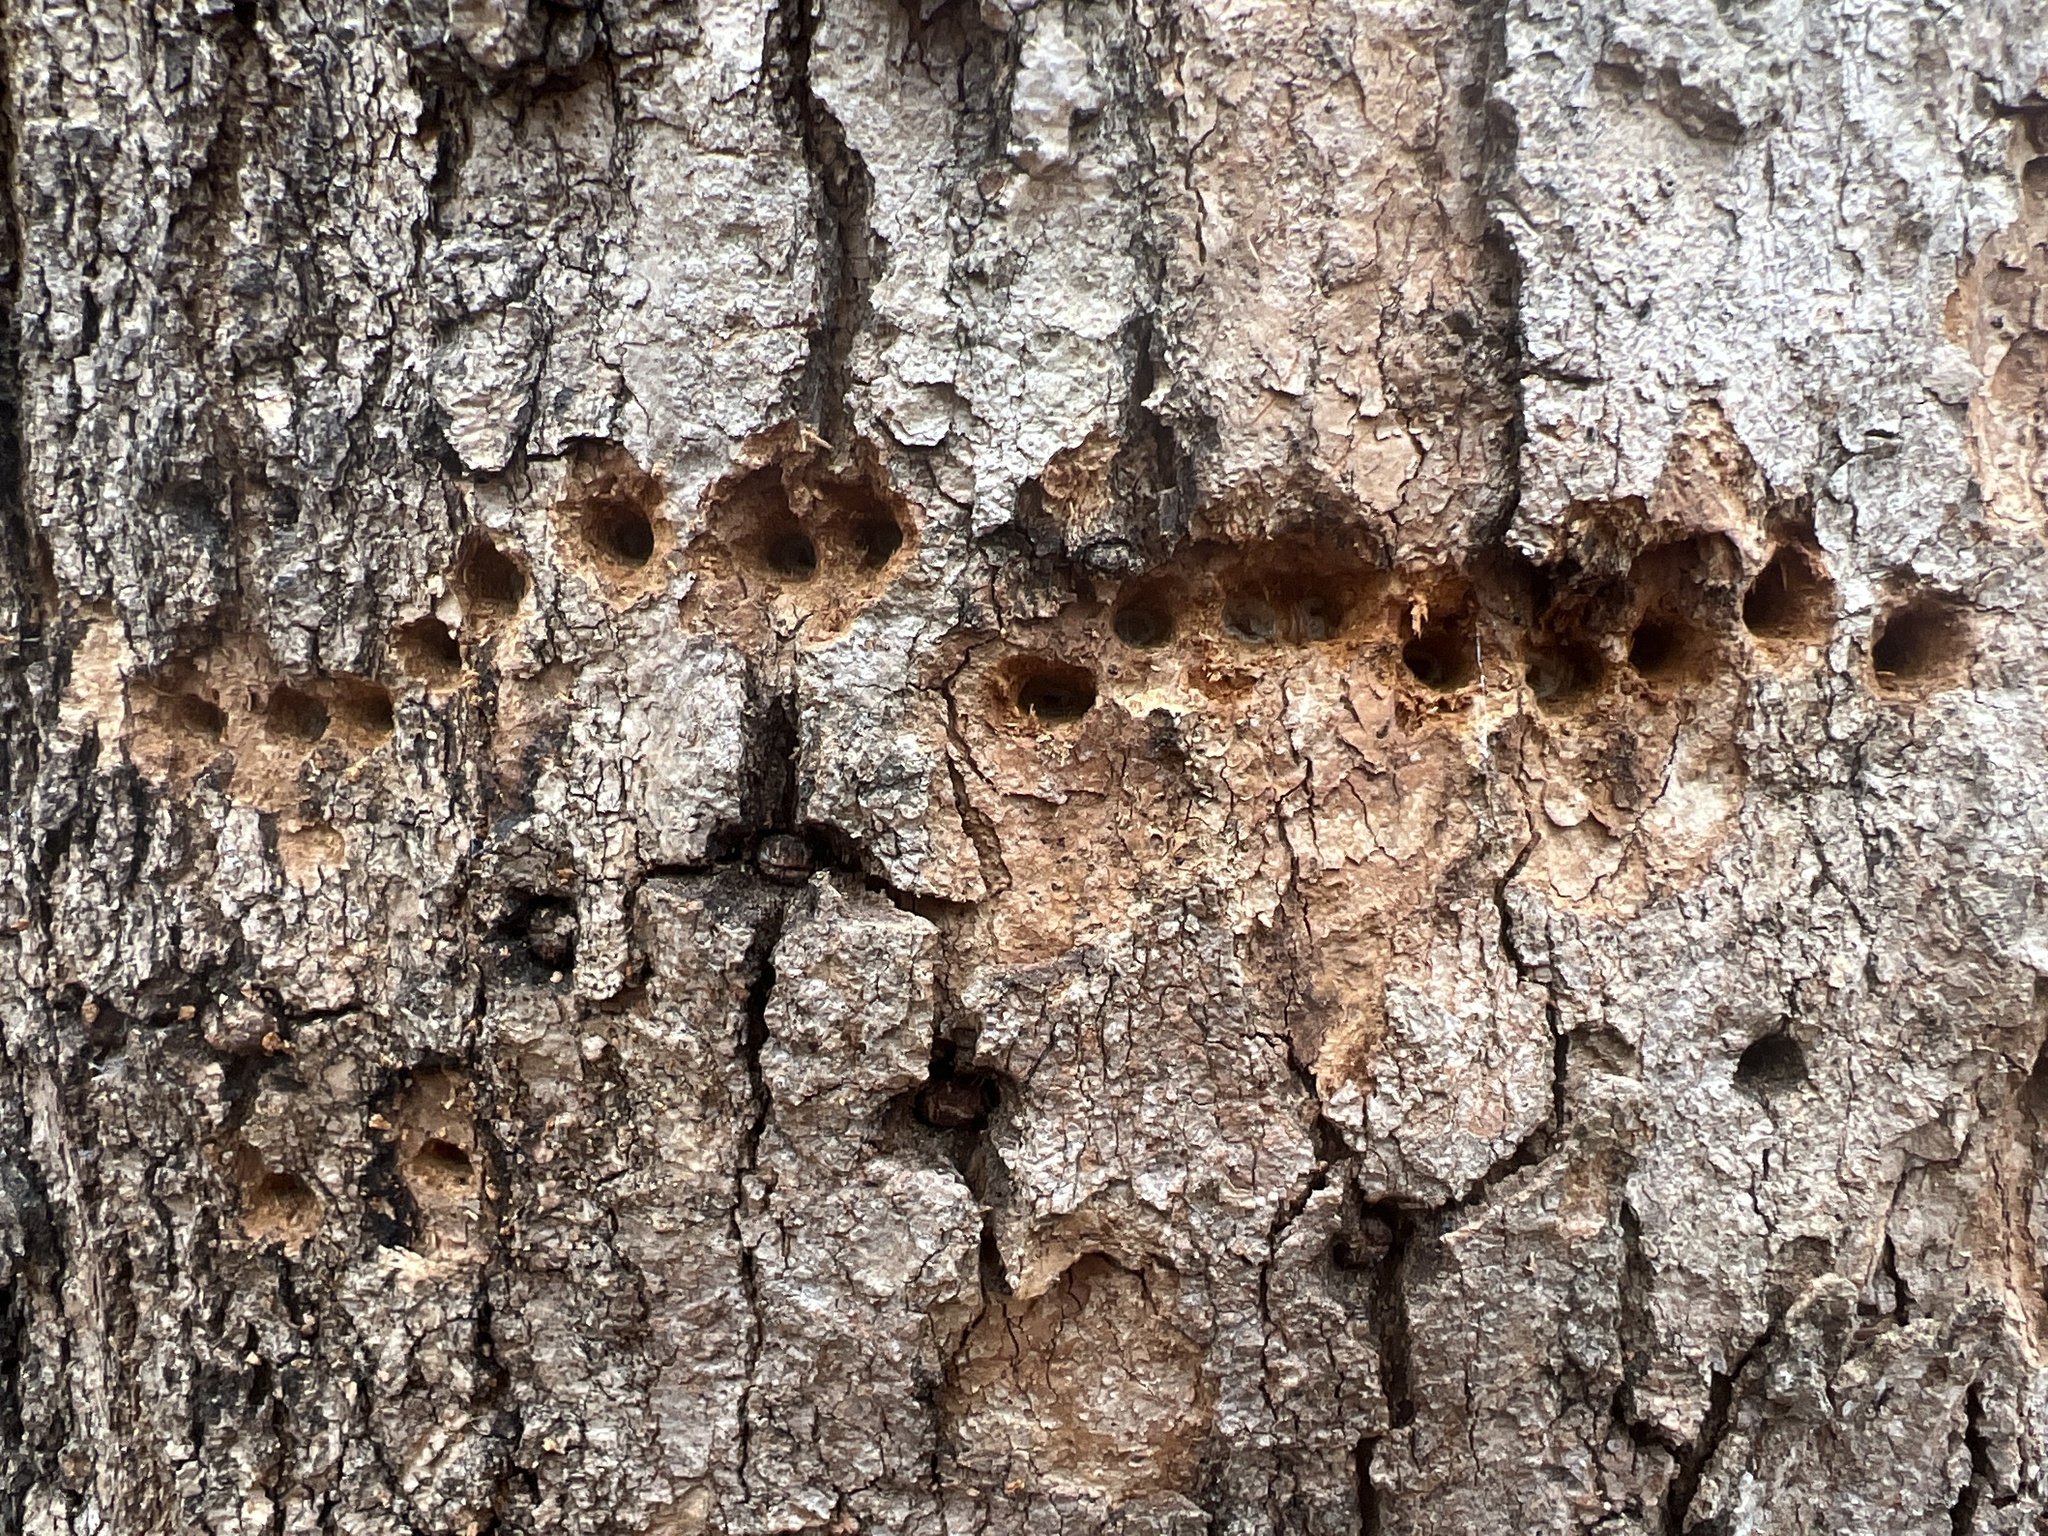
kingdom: Animalia
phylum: Chordata
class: Aves
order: Piciformes
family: Picidae
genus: Sphyrapicus
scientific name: Sphyrapicus varius
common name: Yellow-bellied sapsucker
